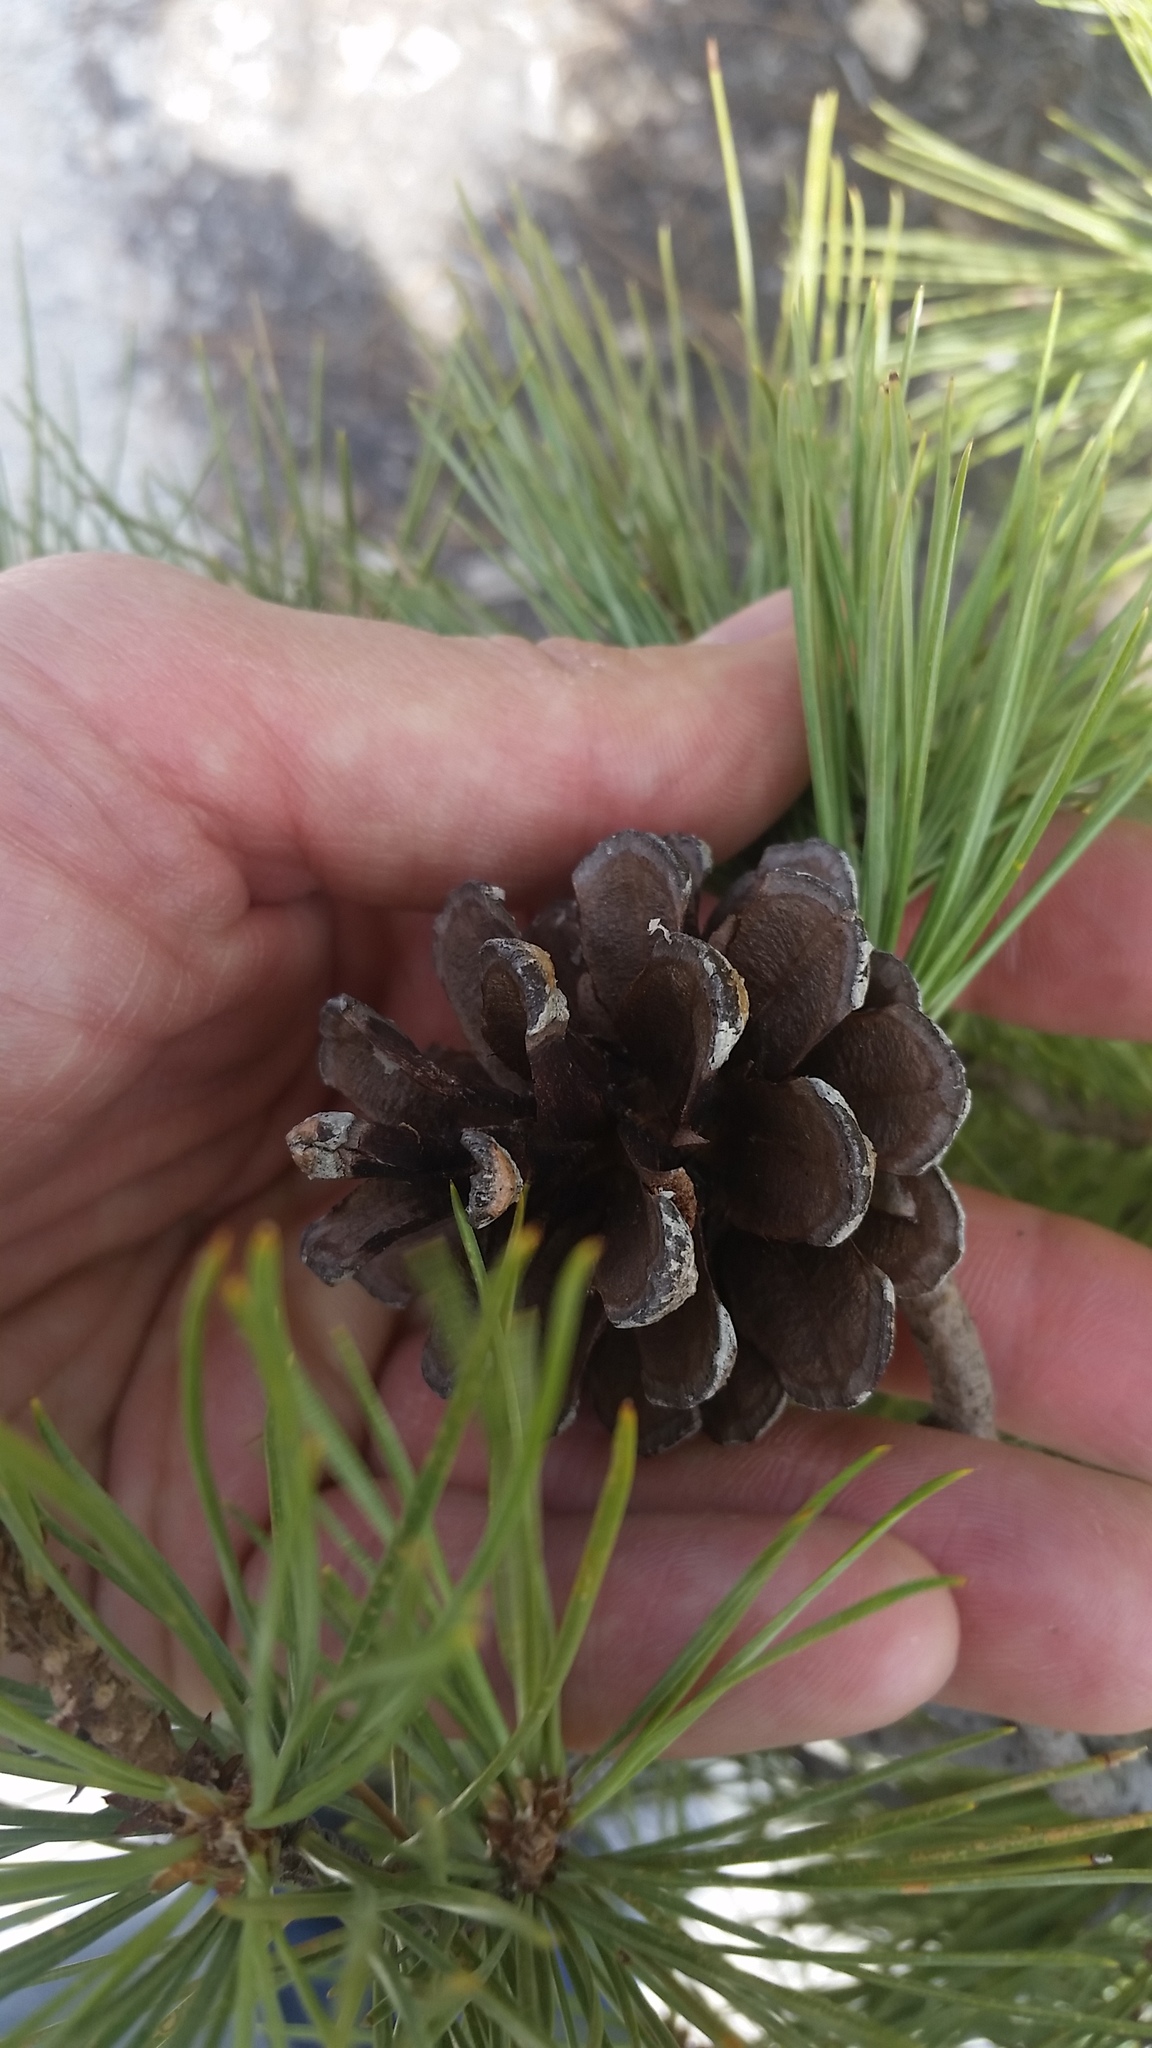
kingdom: Plantae
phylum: Tracheophyta
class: Pinopsida
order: Pinales
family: Pinaceae
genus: Pinus
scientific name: Pinus leiophylla
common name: Chihuahua pine
